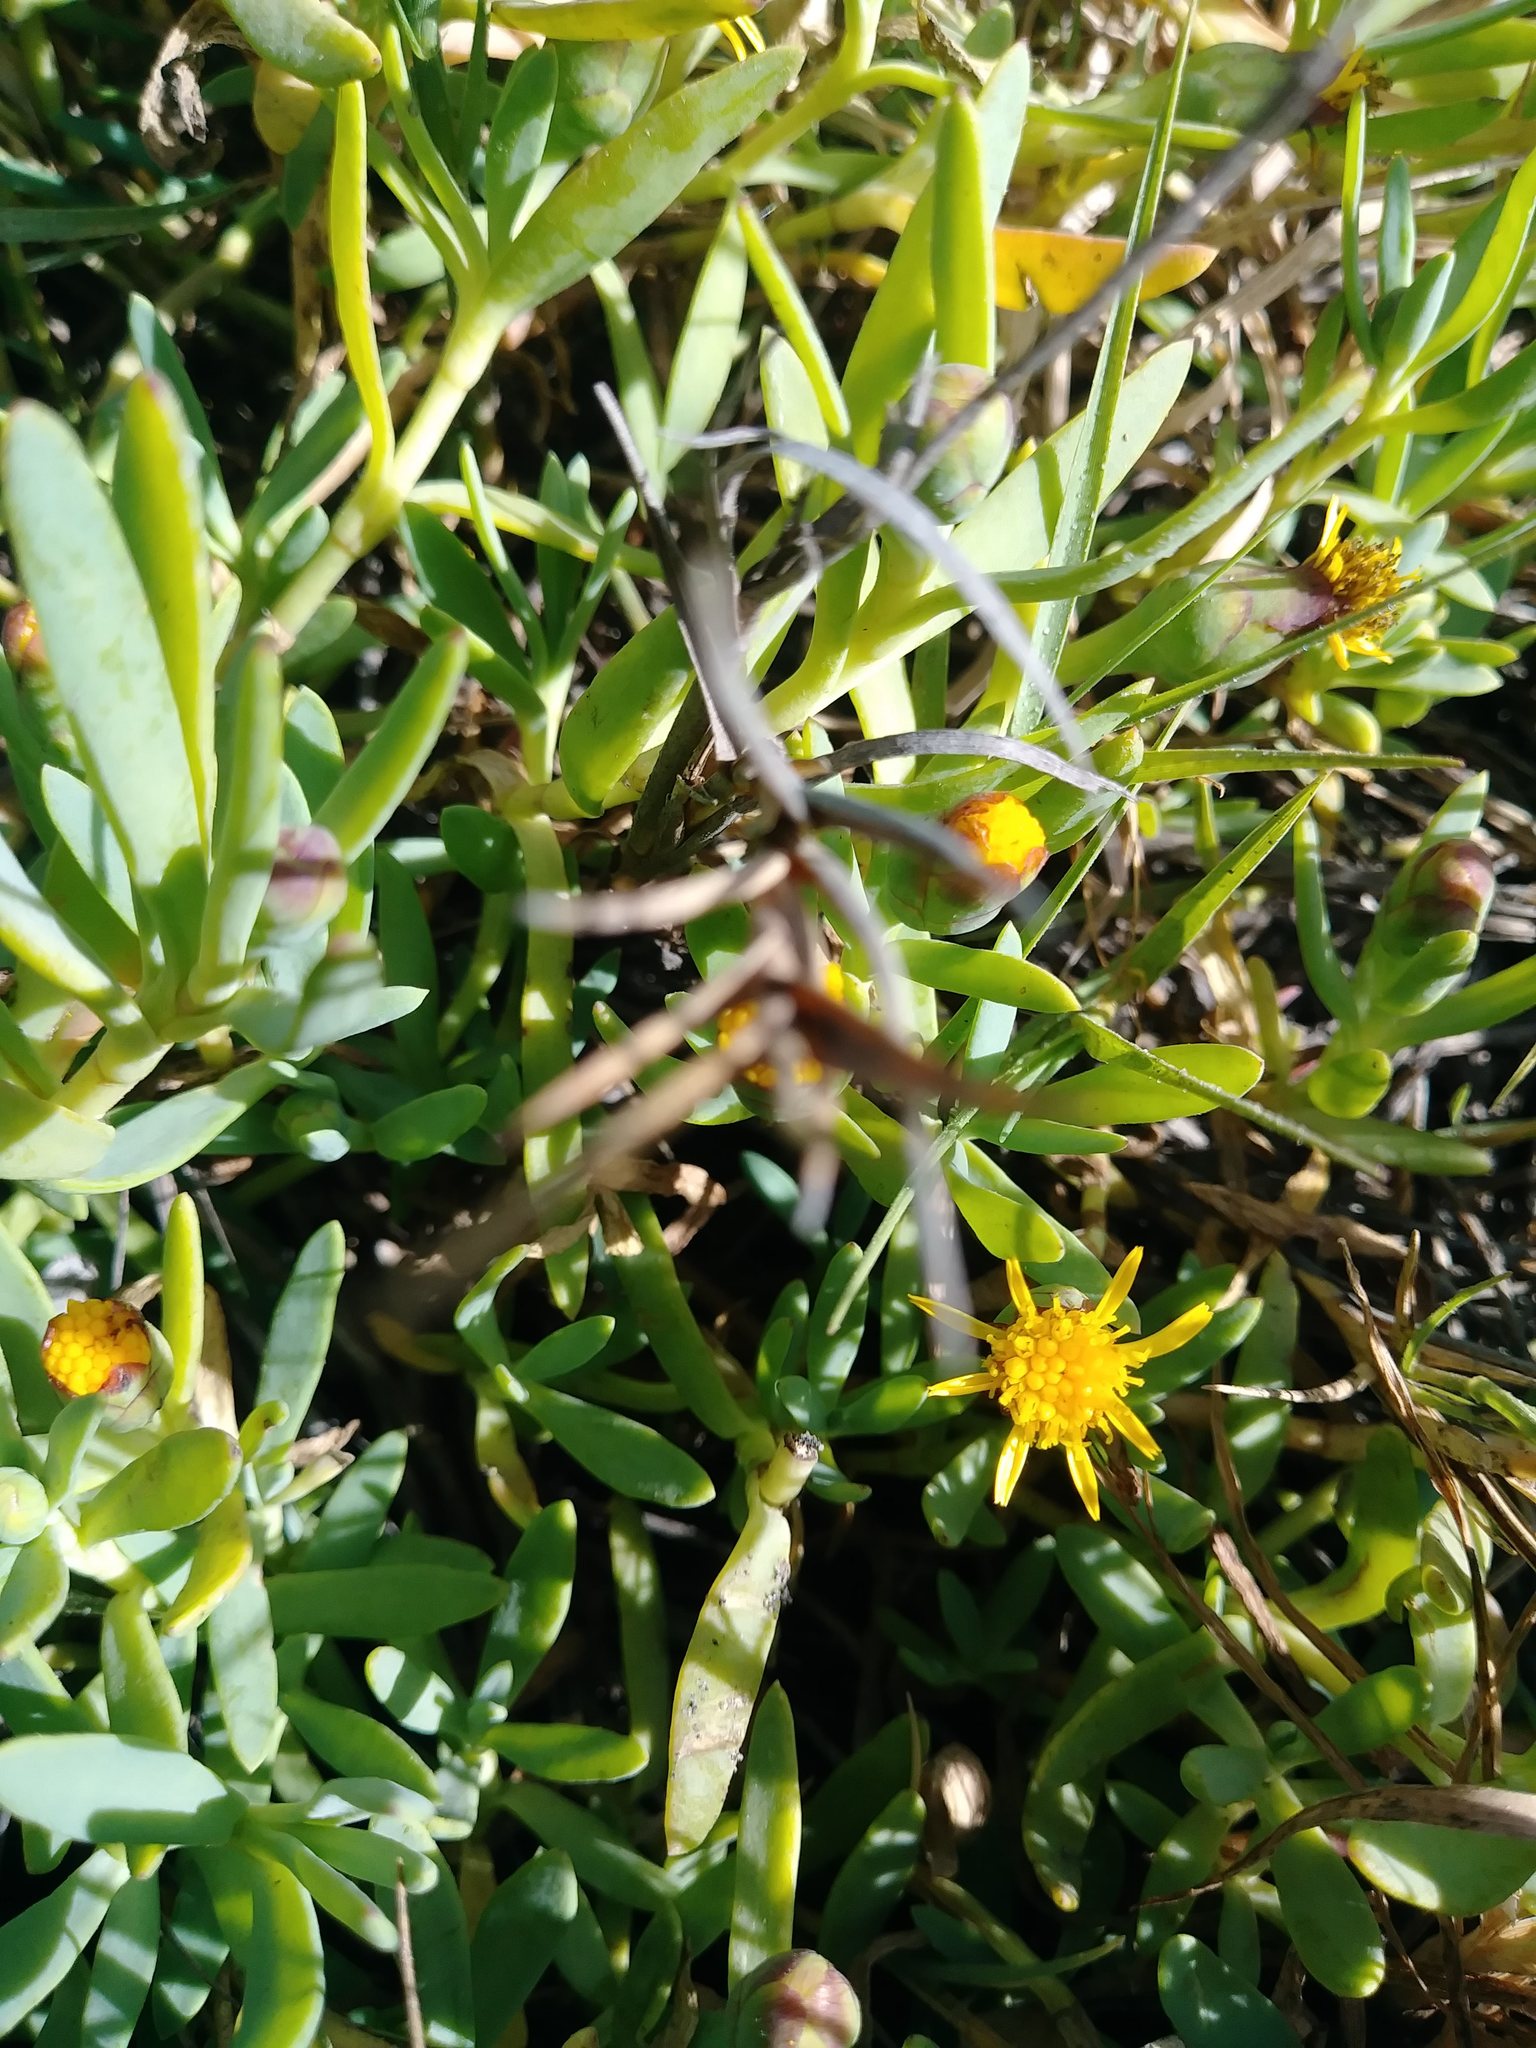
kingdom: Plantae
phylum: Tracheophyta
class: Magnoliopsida
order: Asterales
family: Asteraceae
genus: Jaumea
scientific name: Jaumea carnosa
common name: Fleshy jaumea
